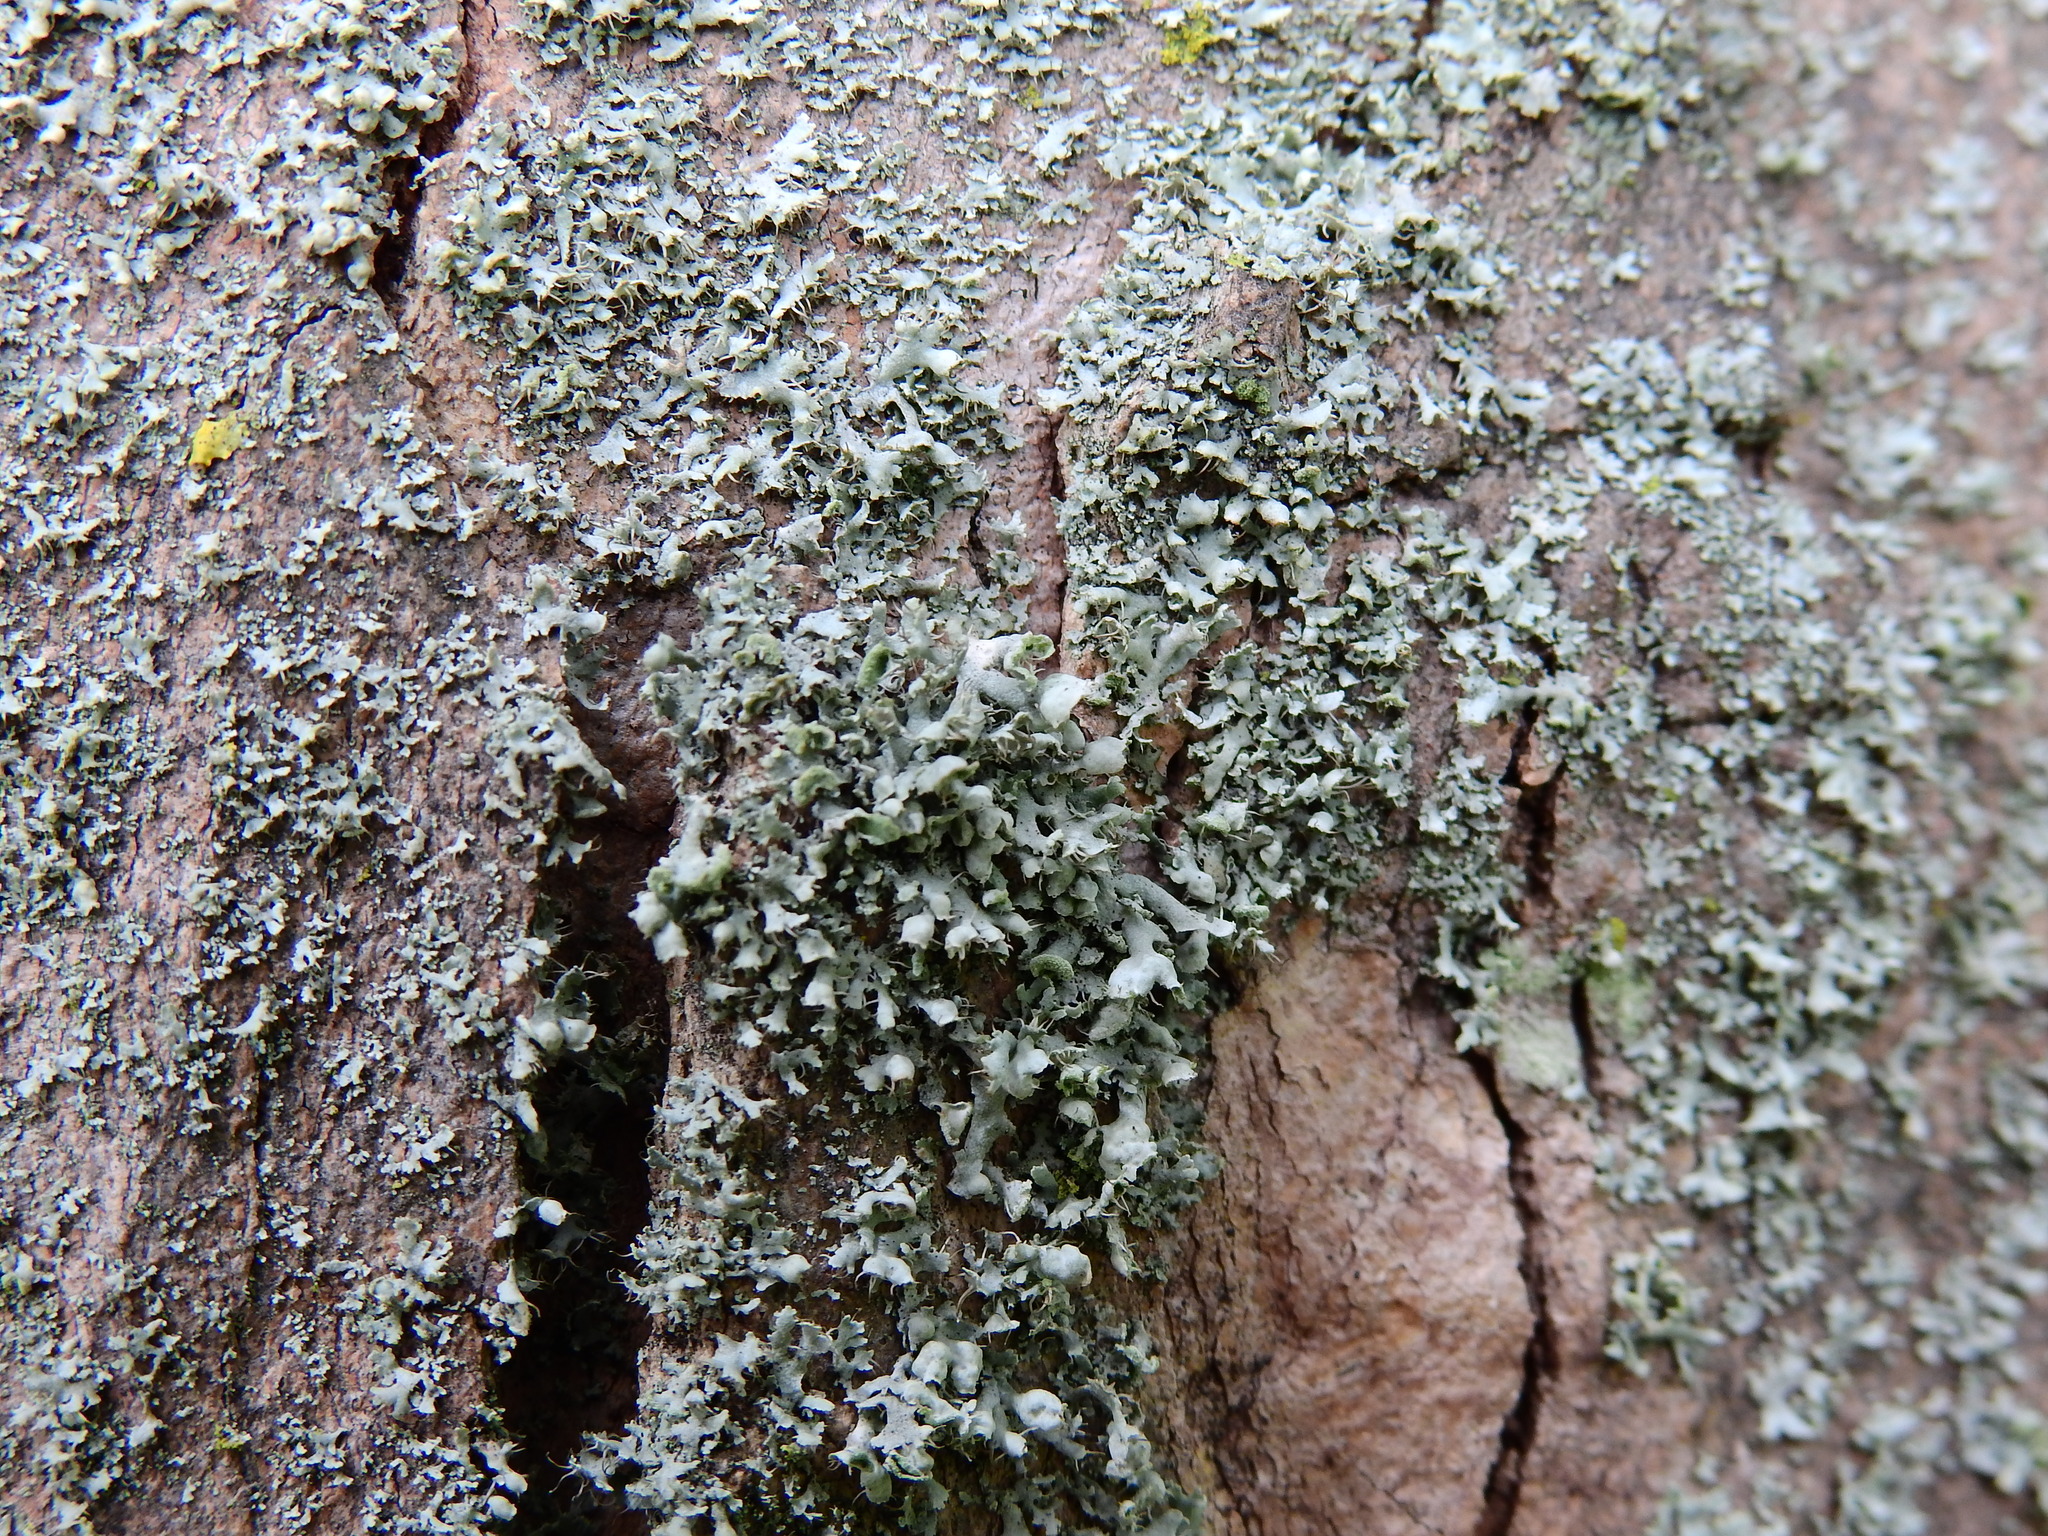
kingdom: Fungi
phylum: Ascomycota
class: Lecanoromycetes
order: Caliciales
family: Physciaceae
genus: Physcia
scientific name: Physcia adscendens
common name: Hooded rosette lichen
